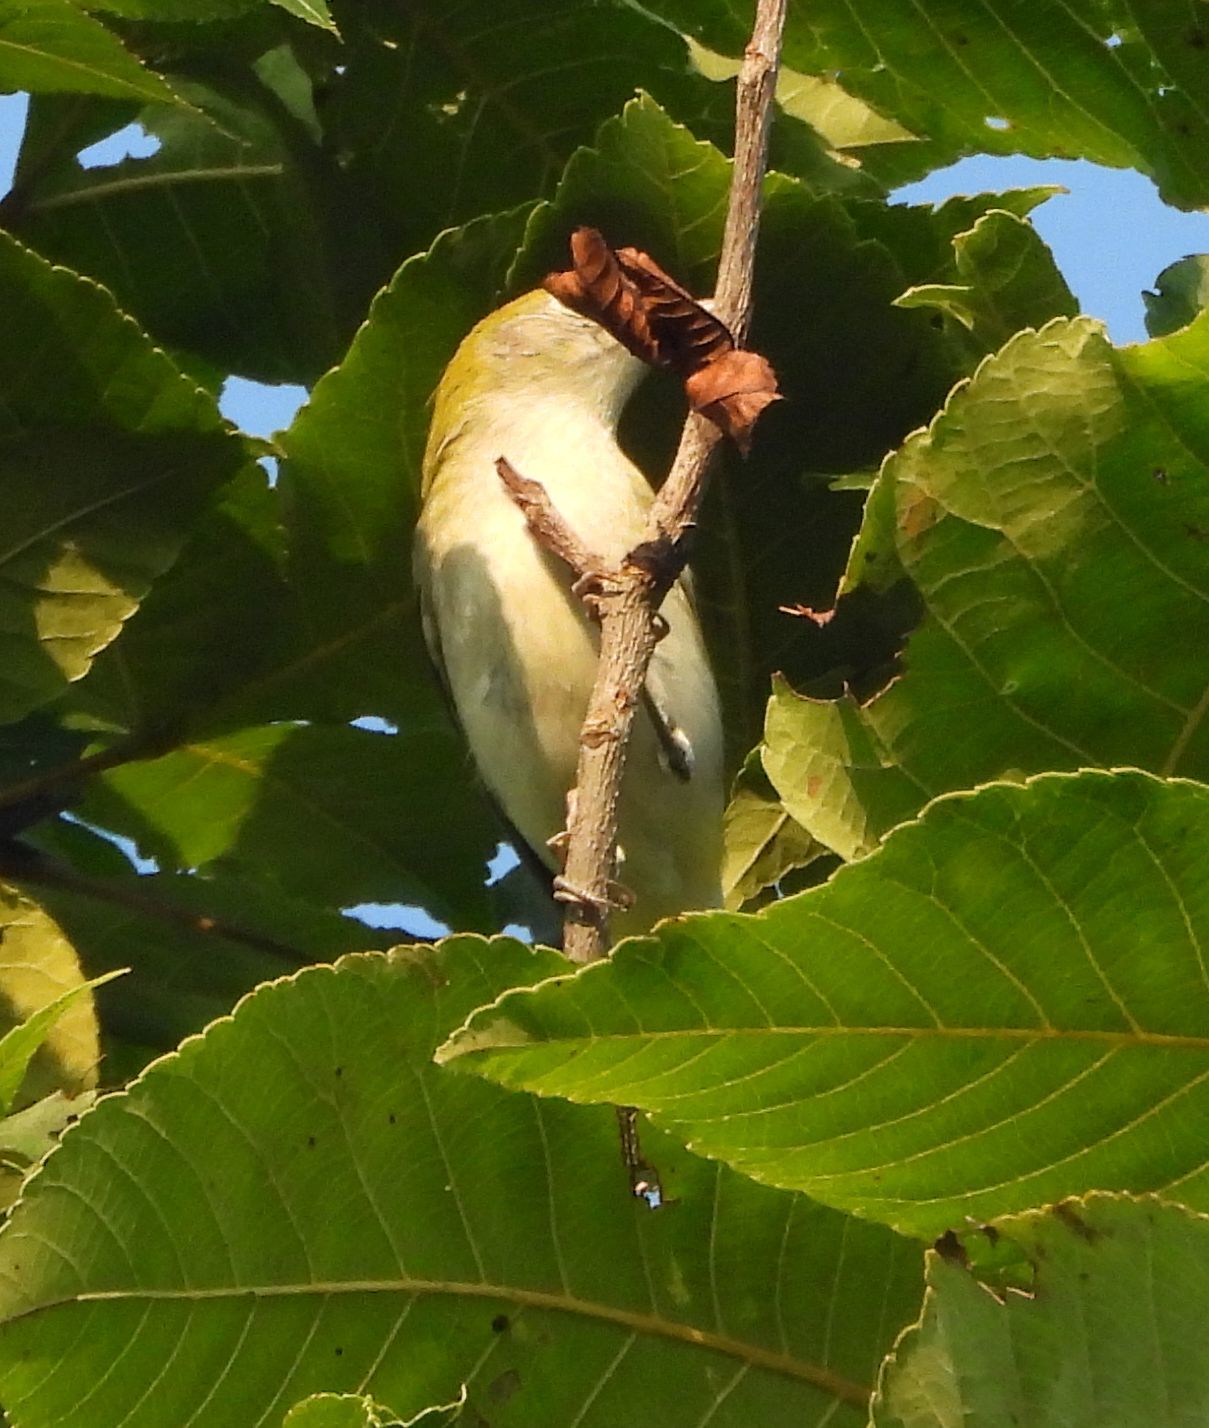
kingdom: Animalia
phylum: Chordata
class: Aves
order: Passeriformes
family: Parulidae
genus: Setophaga
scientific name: Setophaga pensylvanica
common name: Chestnut-sided warbler
